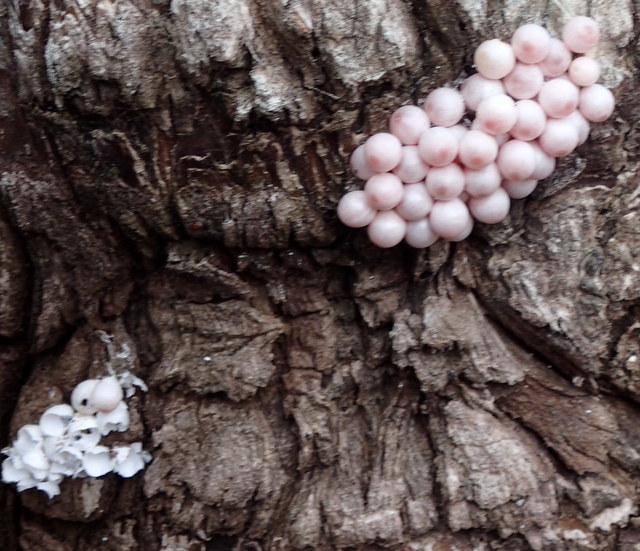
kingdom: Animalia
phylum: Mollusca
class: Gastropoda
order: Architaenioglossa
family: Ampullariidae
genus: Pomacea
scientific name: Pomacea paludosa
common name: Florida applesnail
